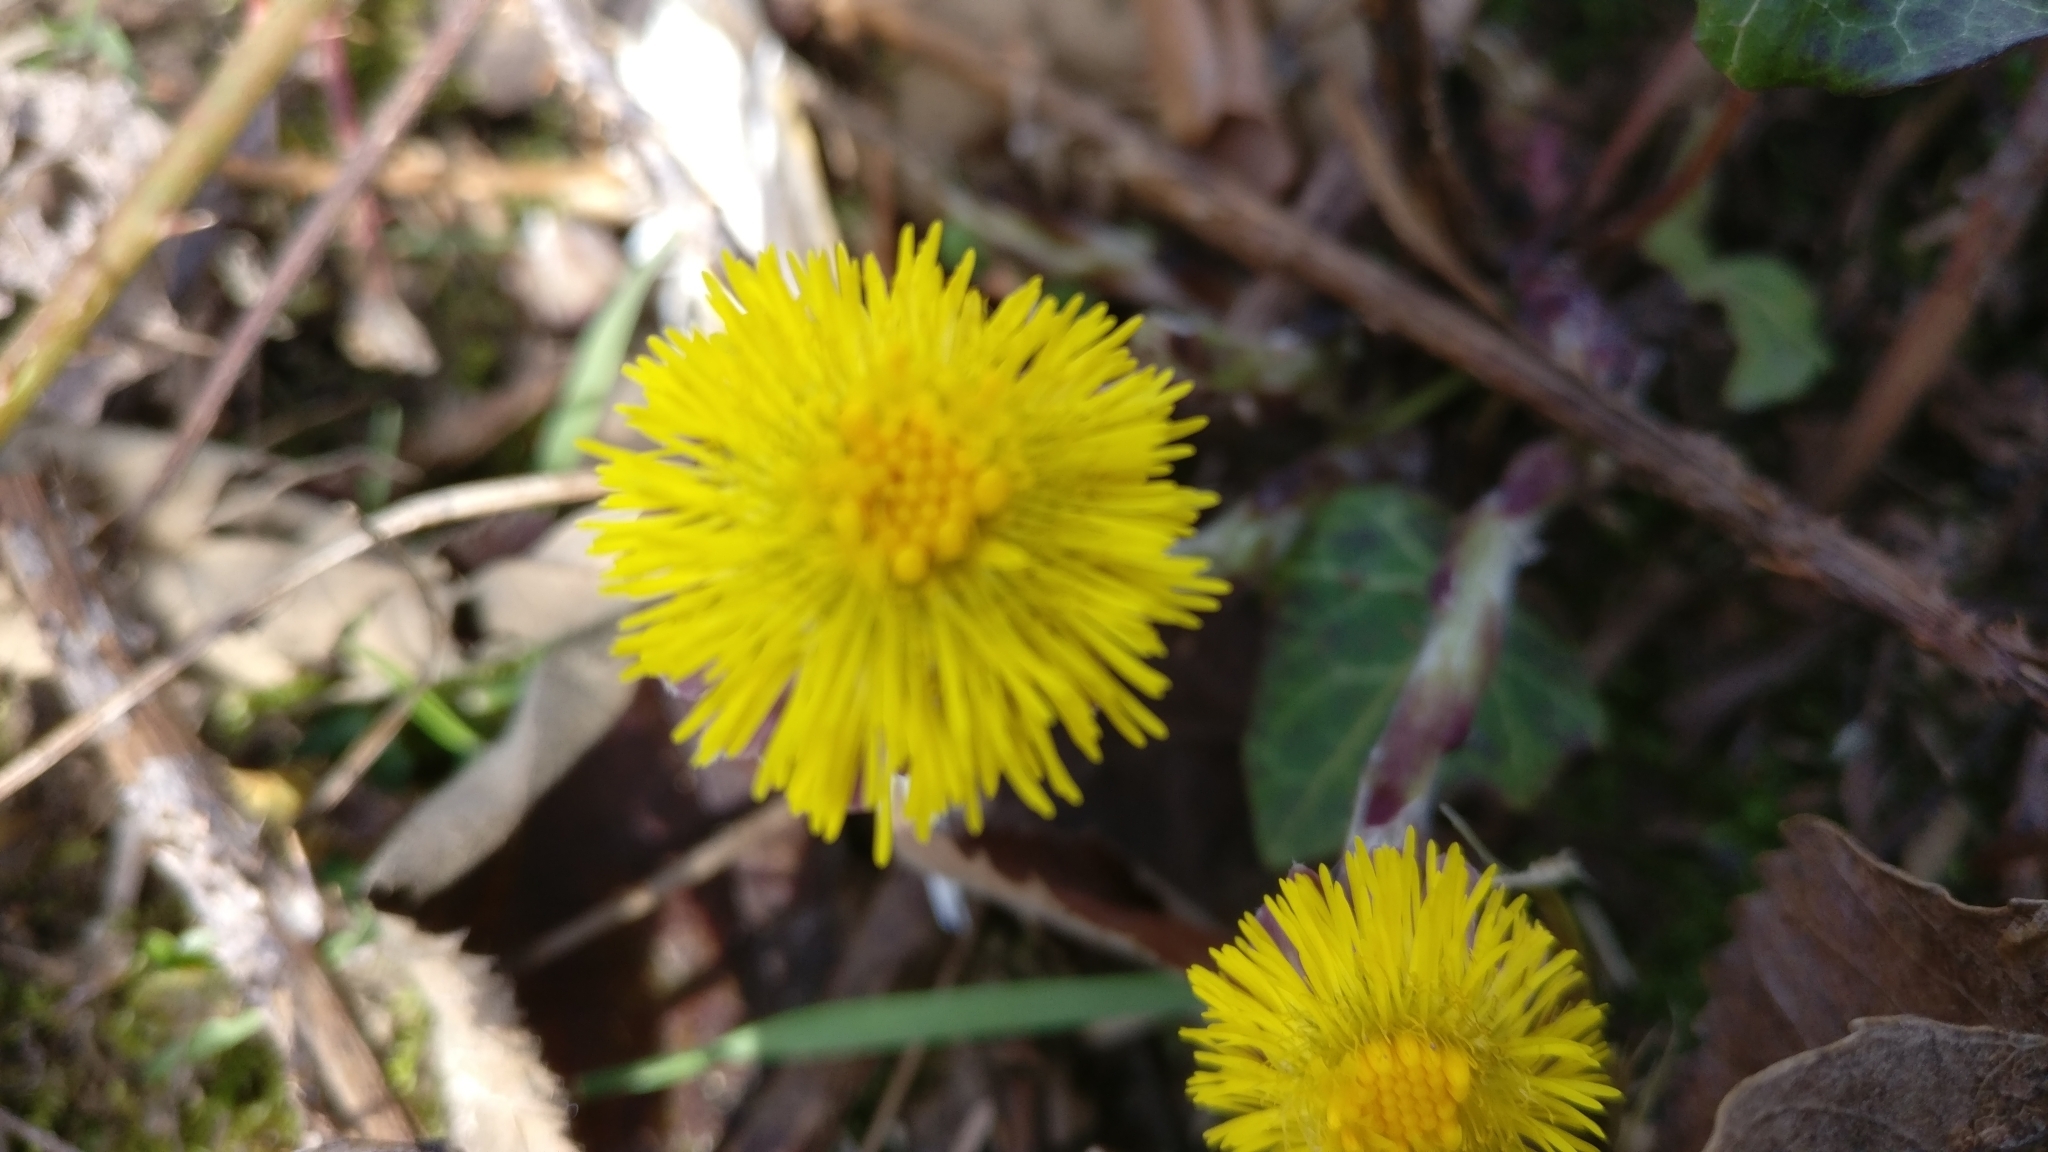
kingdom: Plantae
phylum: Tracheophyta
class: Magnoliopsida
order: Asterales
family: Asteraceae
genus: Tussilago
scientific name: Tussilago farfara
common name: Coltsfoot
